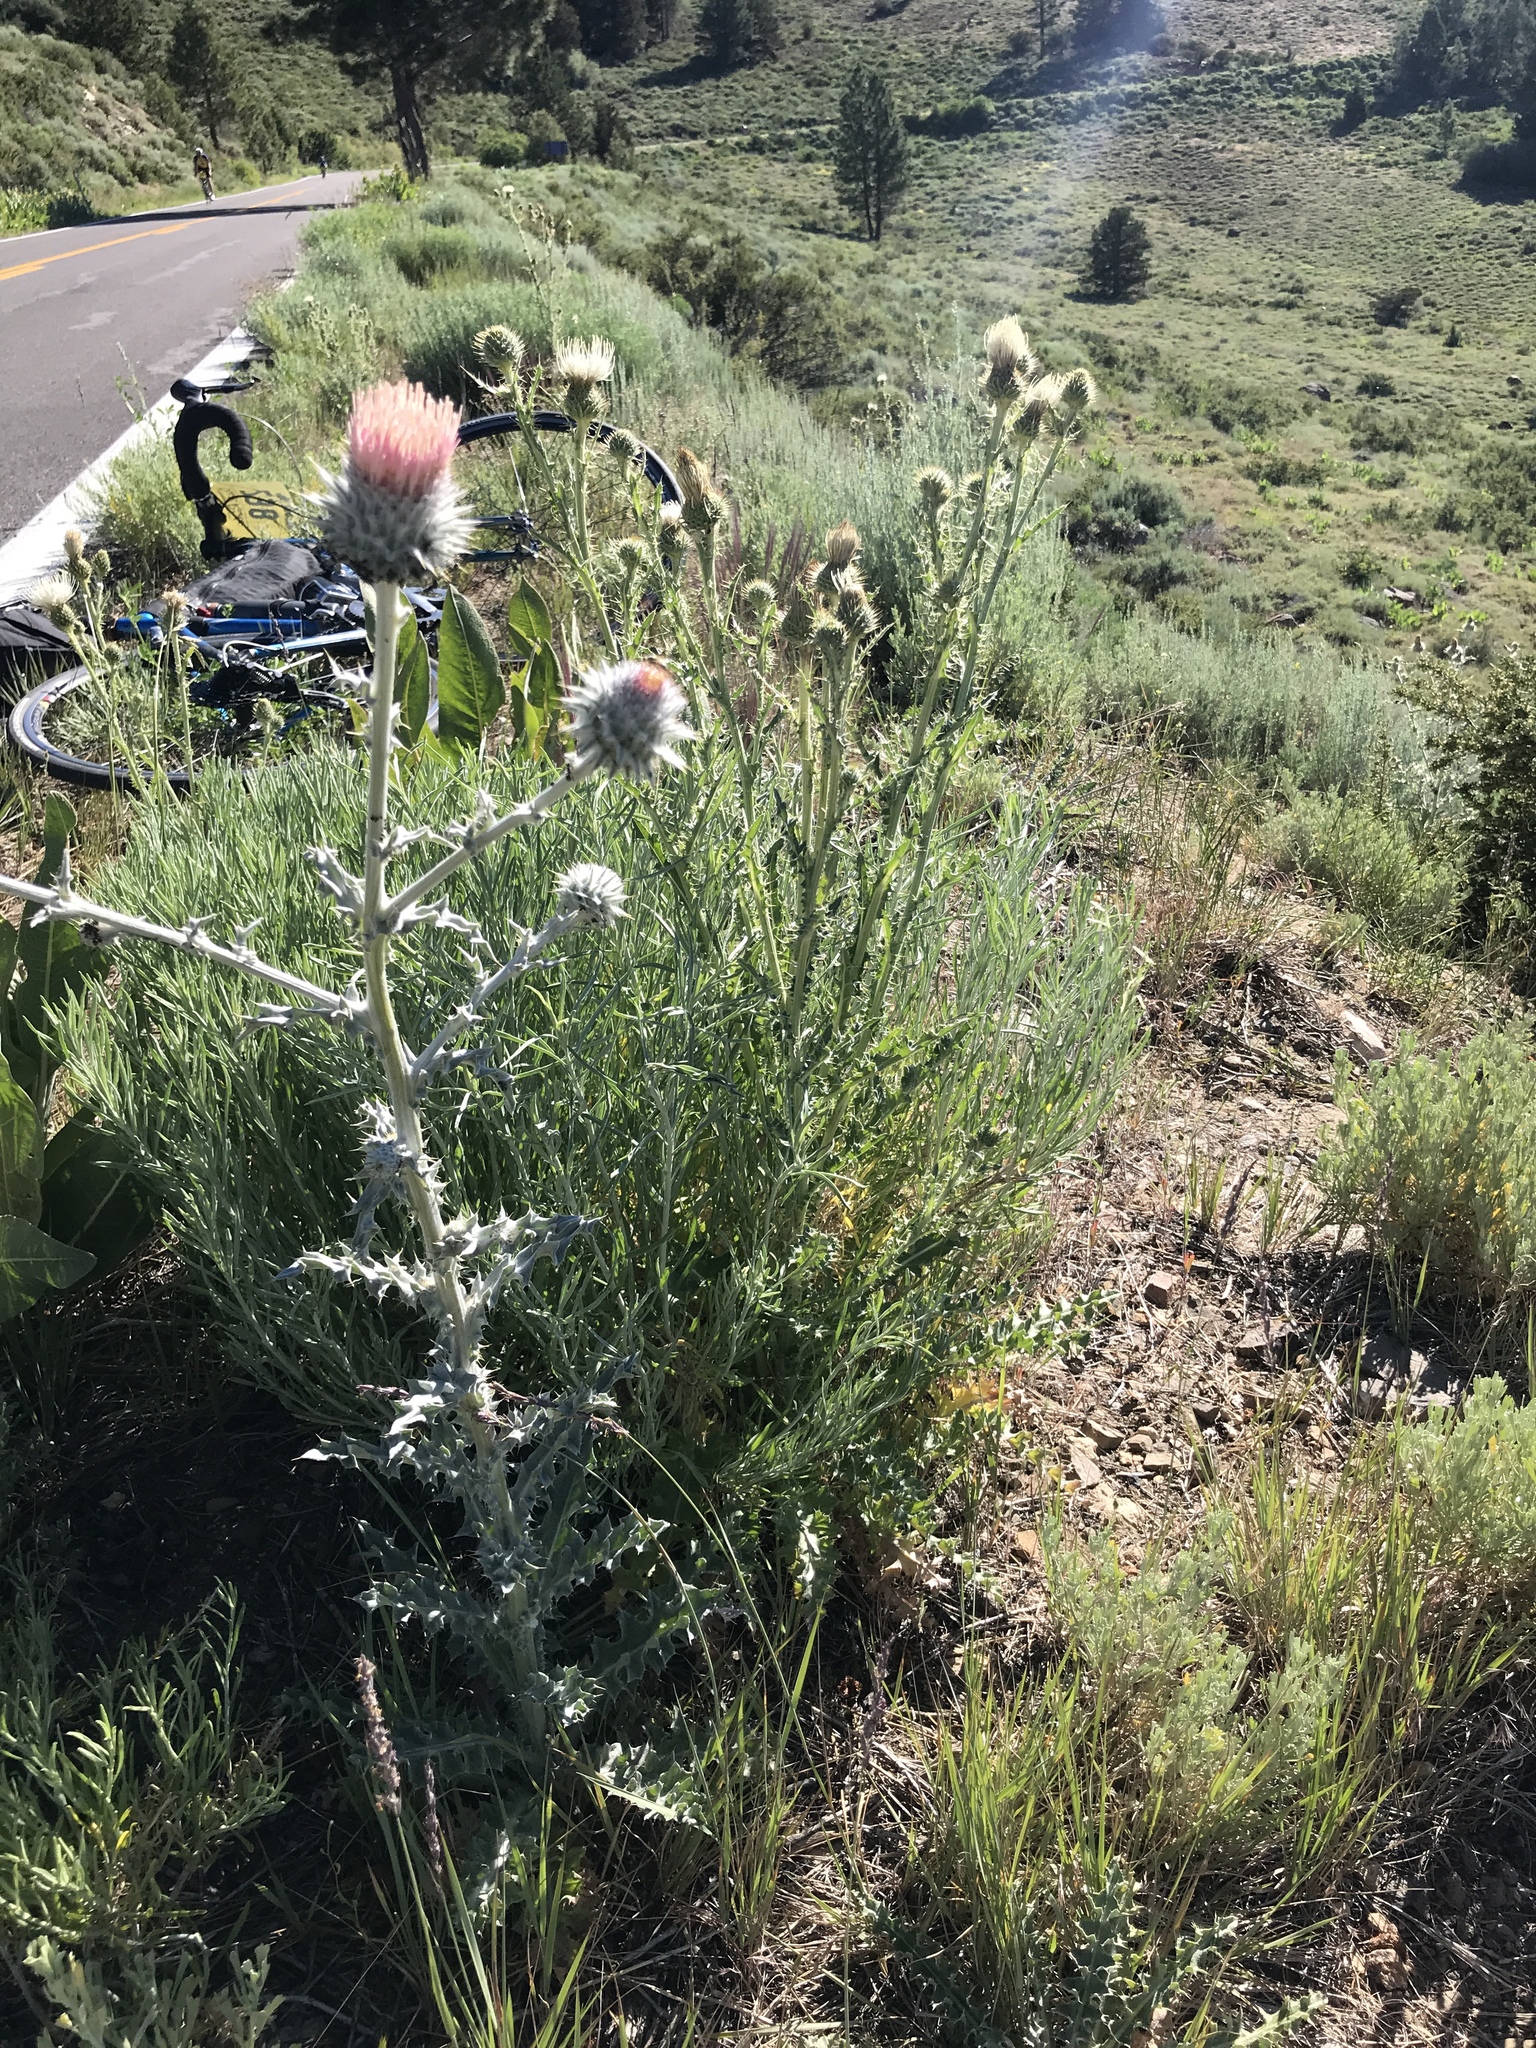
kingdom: Plantae
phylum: Tracheophyta
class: Magnoliopsida
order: Asterales
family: Asteraceae
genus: Cirsium
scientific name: Cirsium occidentale
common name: Western thistle
